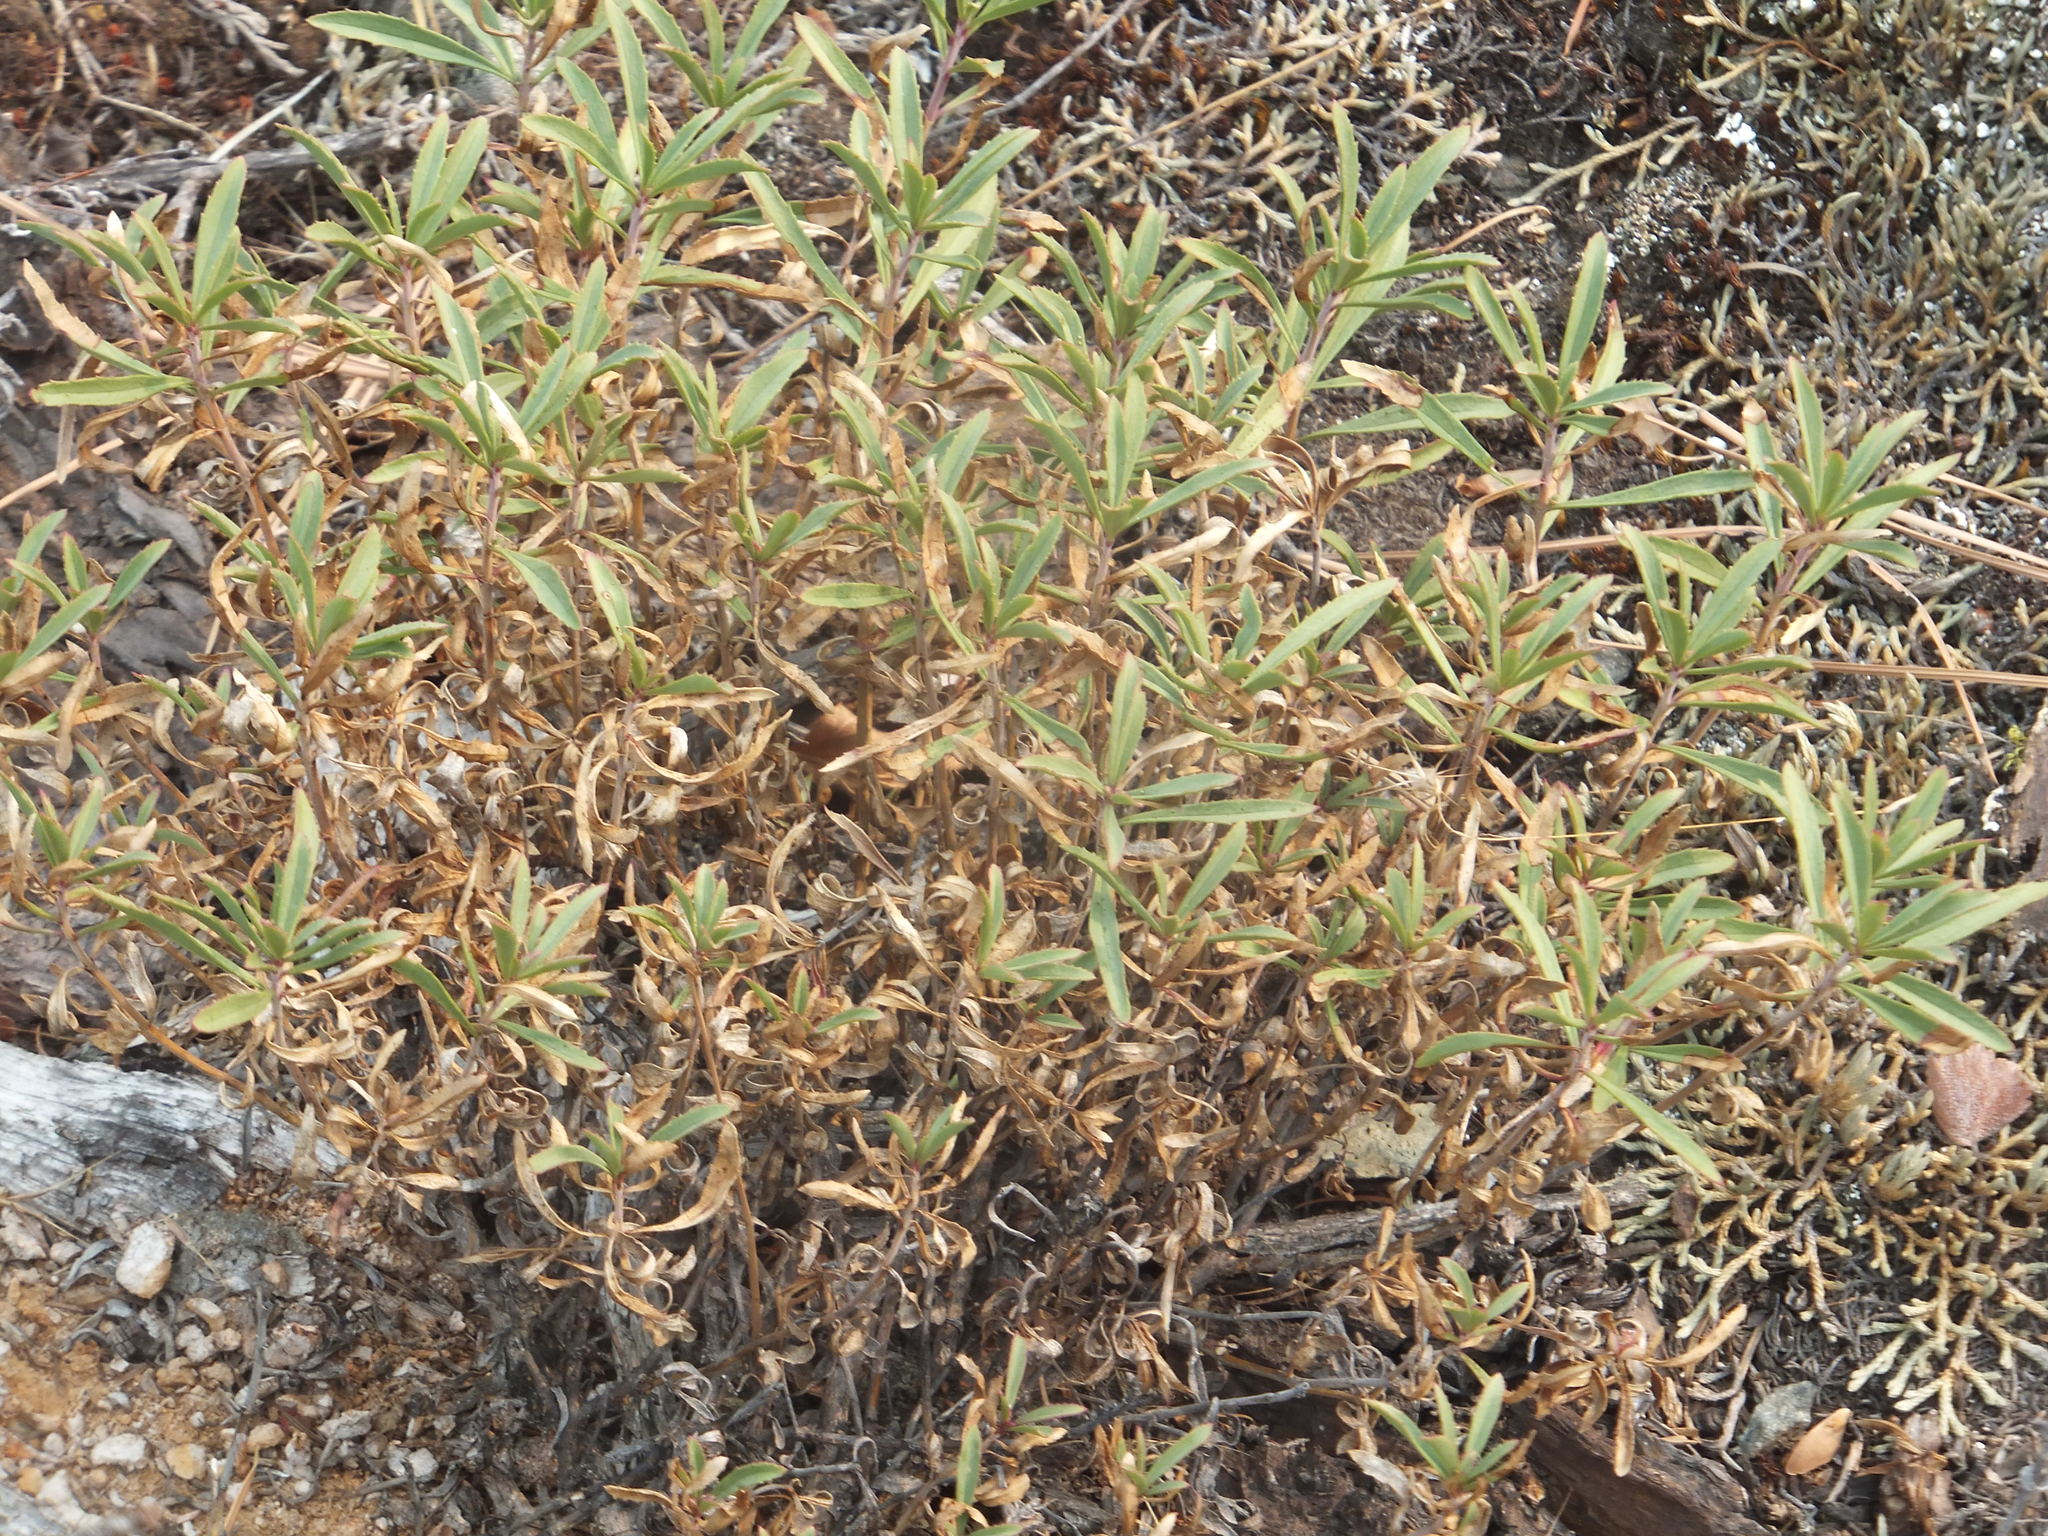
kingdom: Plantae
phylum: Tracheophyta
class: Magnoliopsida
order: Lamiales
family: Plantaginaceae
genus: Penstemon
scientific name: Penstemon fruticosus
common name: Bush penstemon
